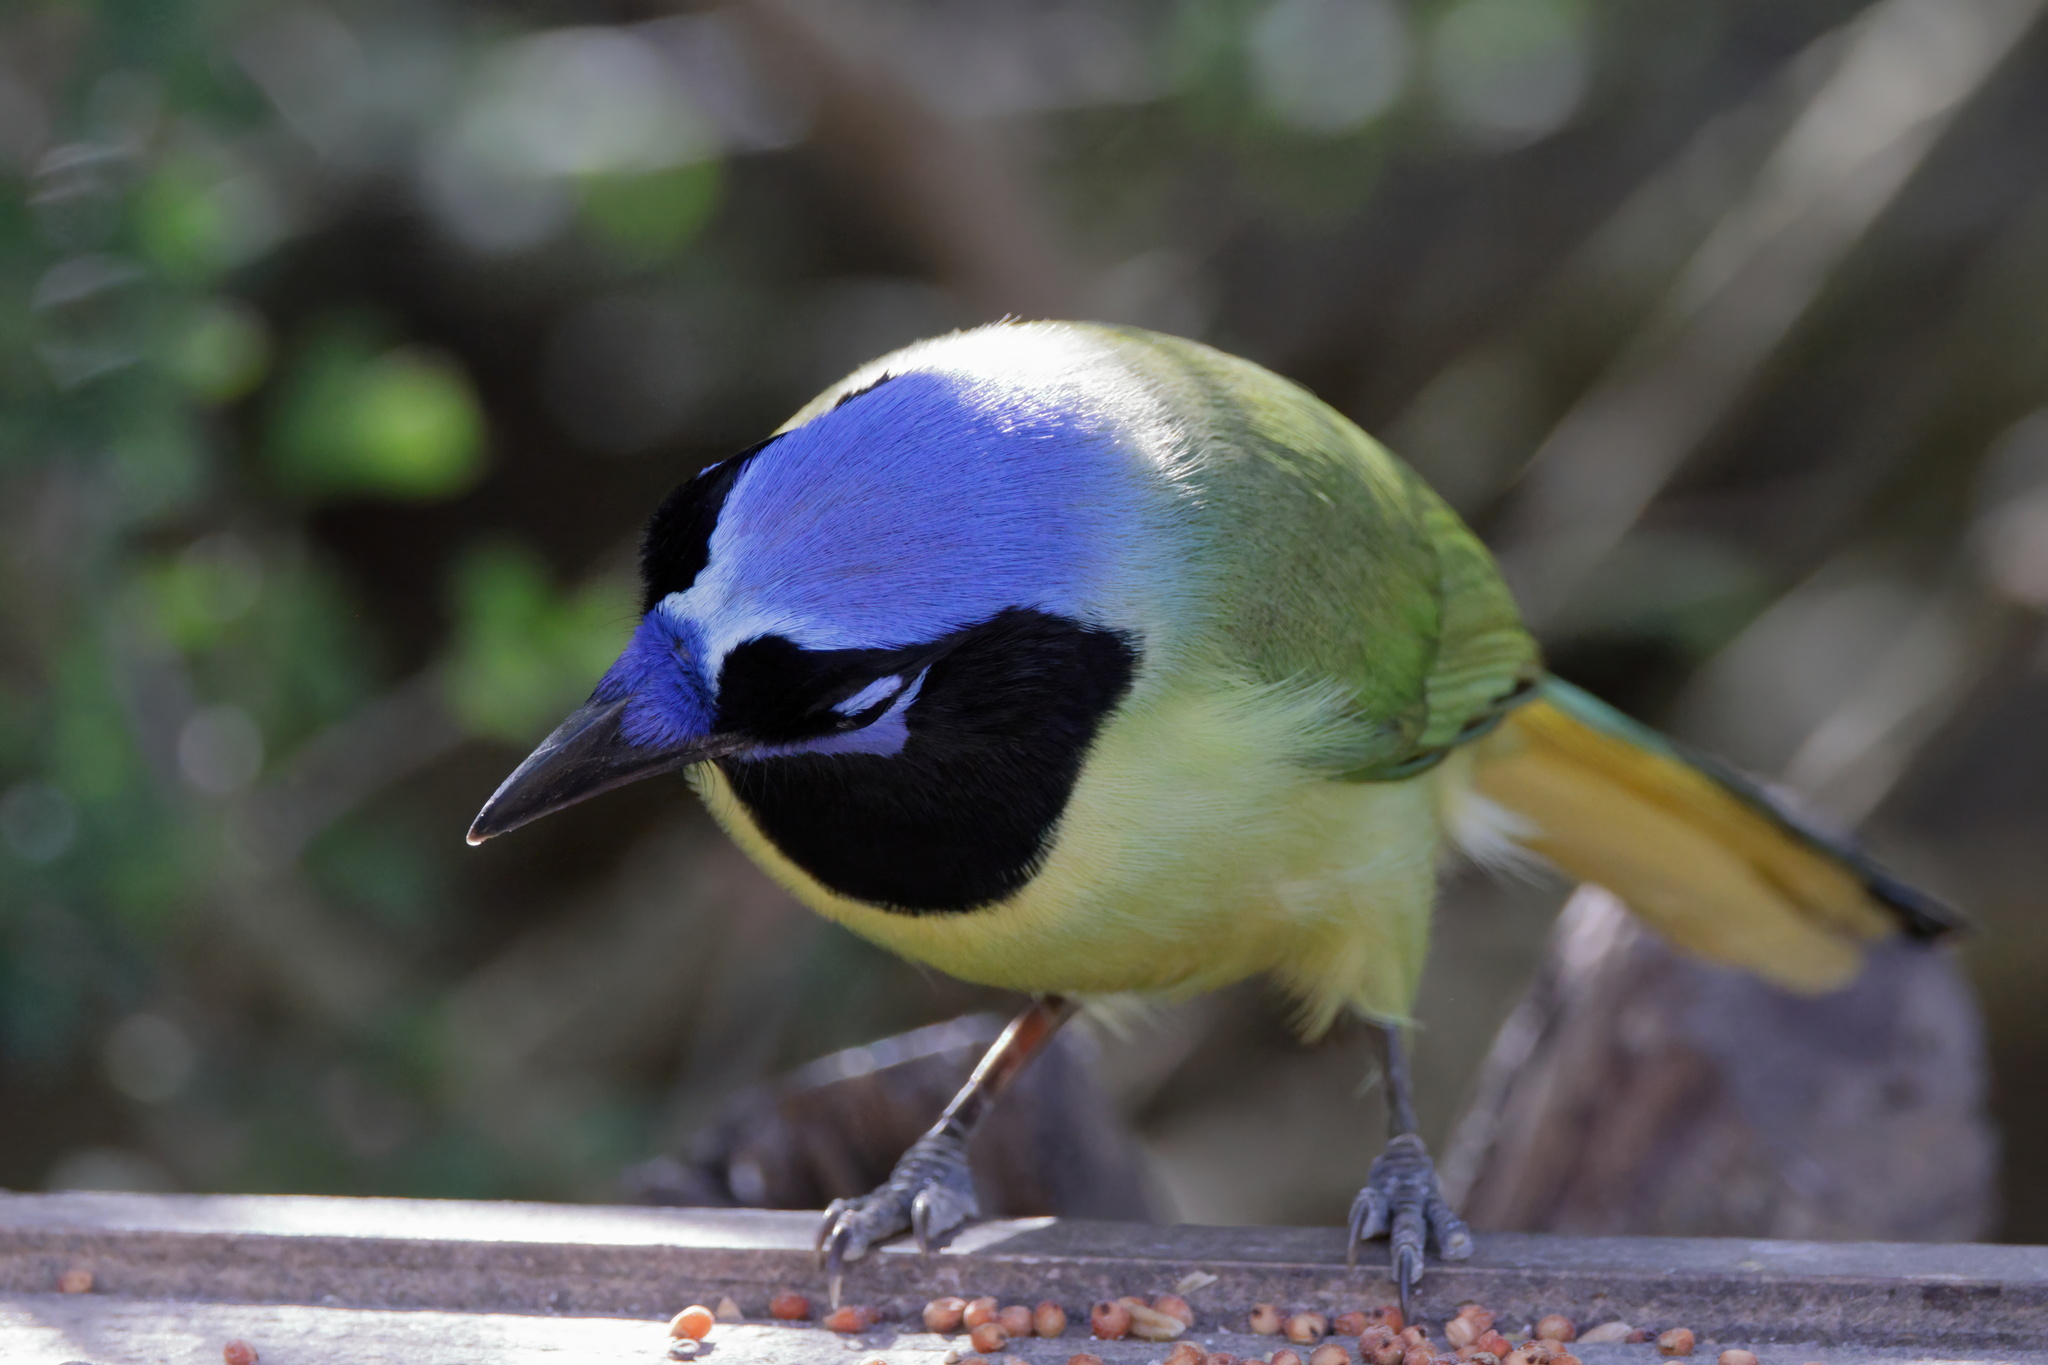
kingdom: Animalia
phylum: Chordata
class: Aves
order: Passeriformes
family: Corvidae
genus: Cyanocorax
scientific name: Cyanocorax yncas
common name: Green jay
